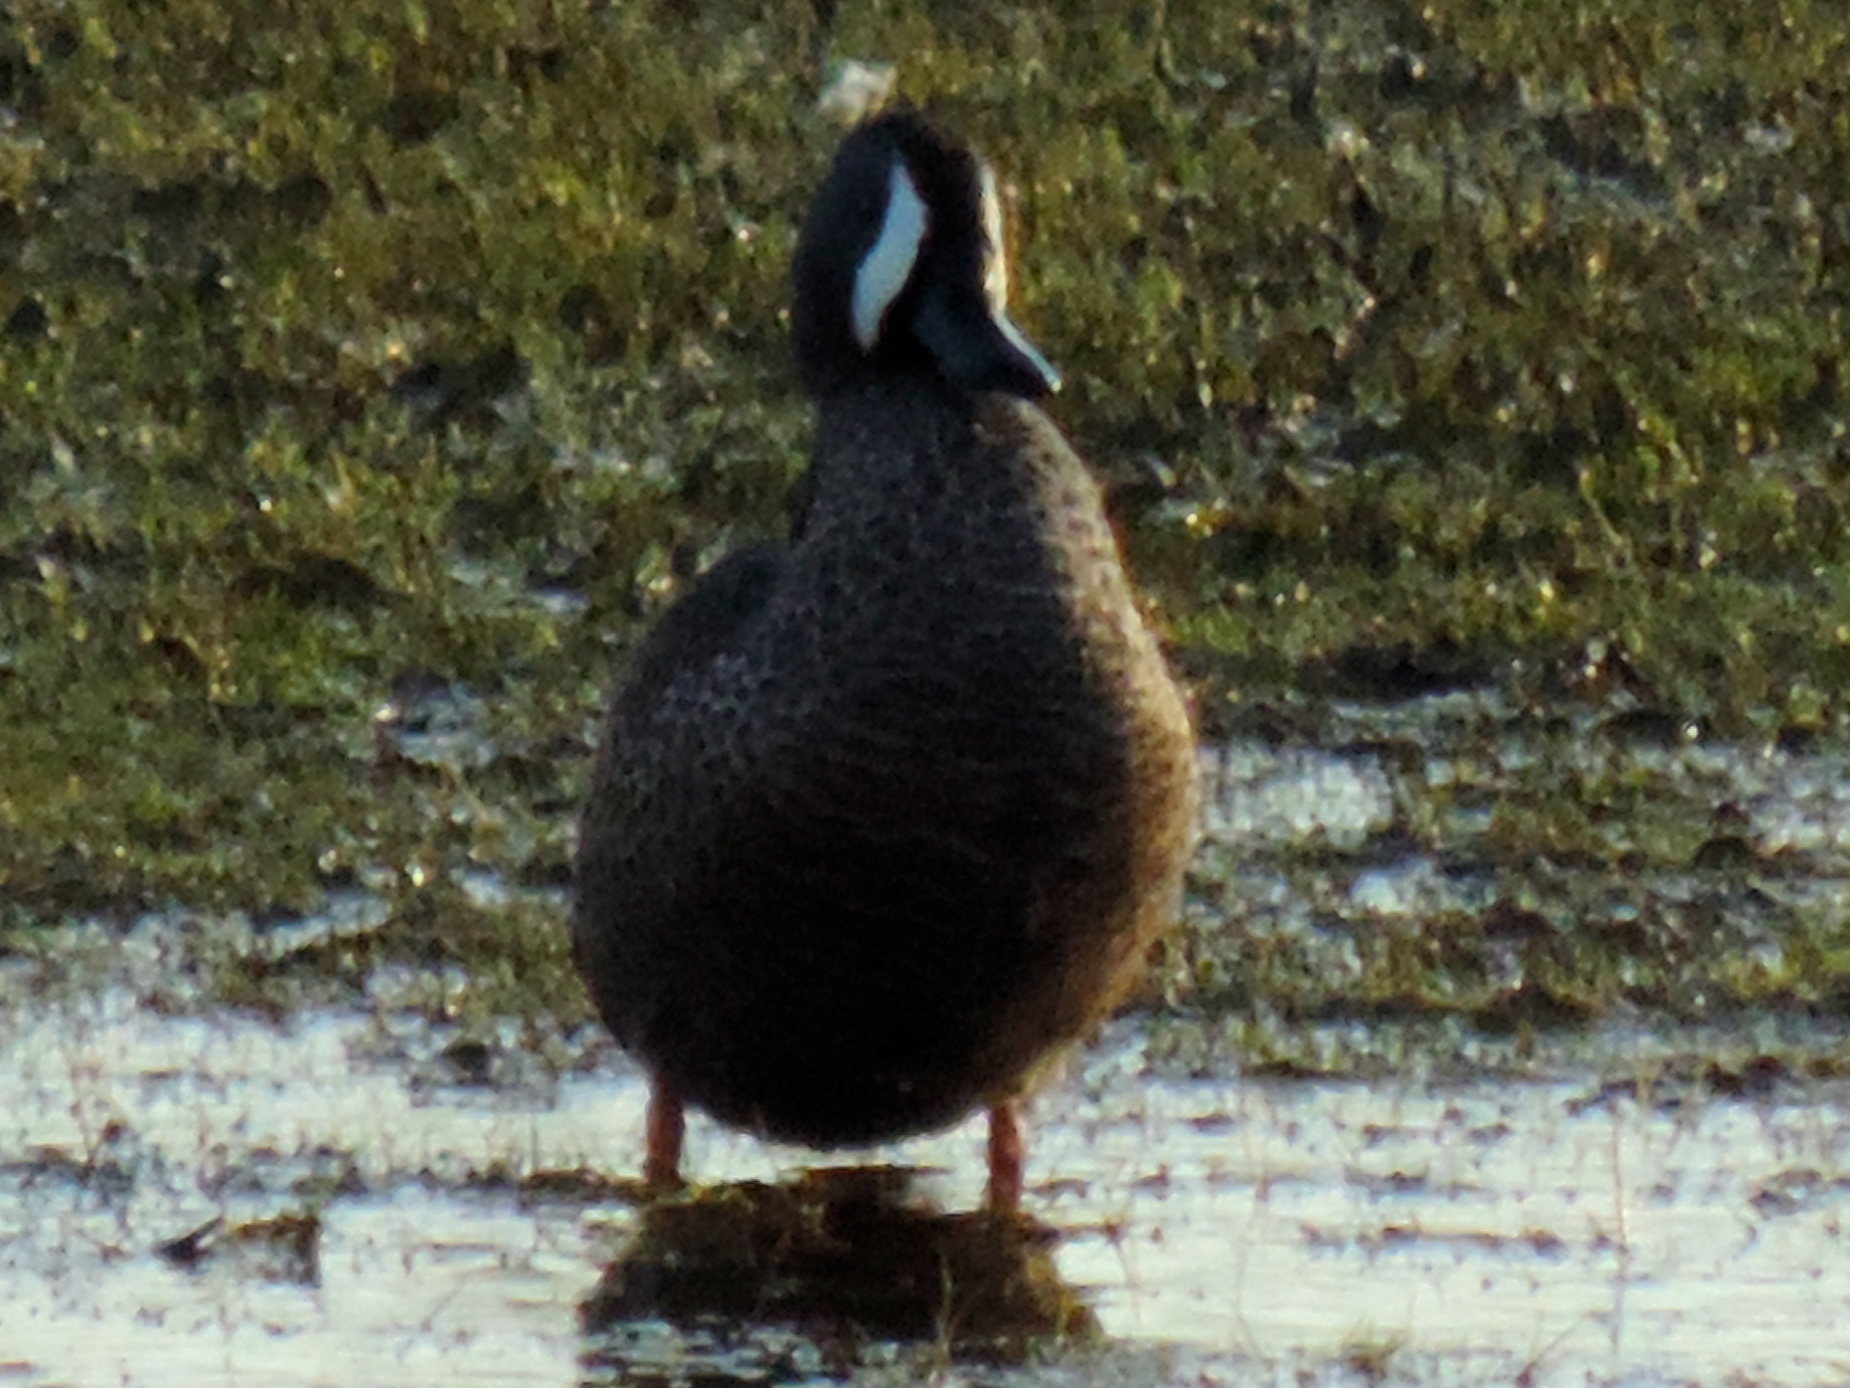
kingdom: Animalia
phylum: Chordata
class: Aves
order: Anseriformes
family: Anatidae
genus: Spatula
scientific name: Spatula discors
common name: Blue-winged teal
